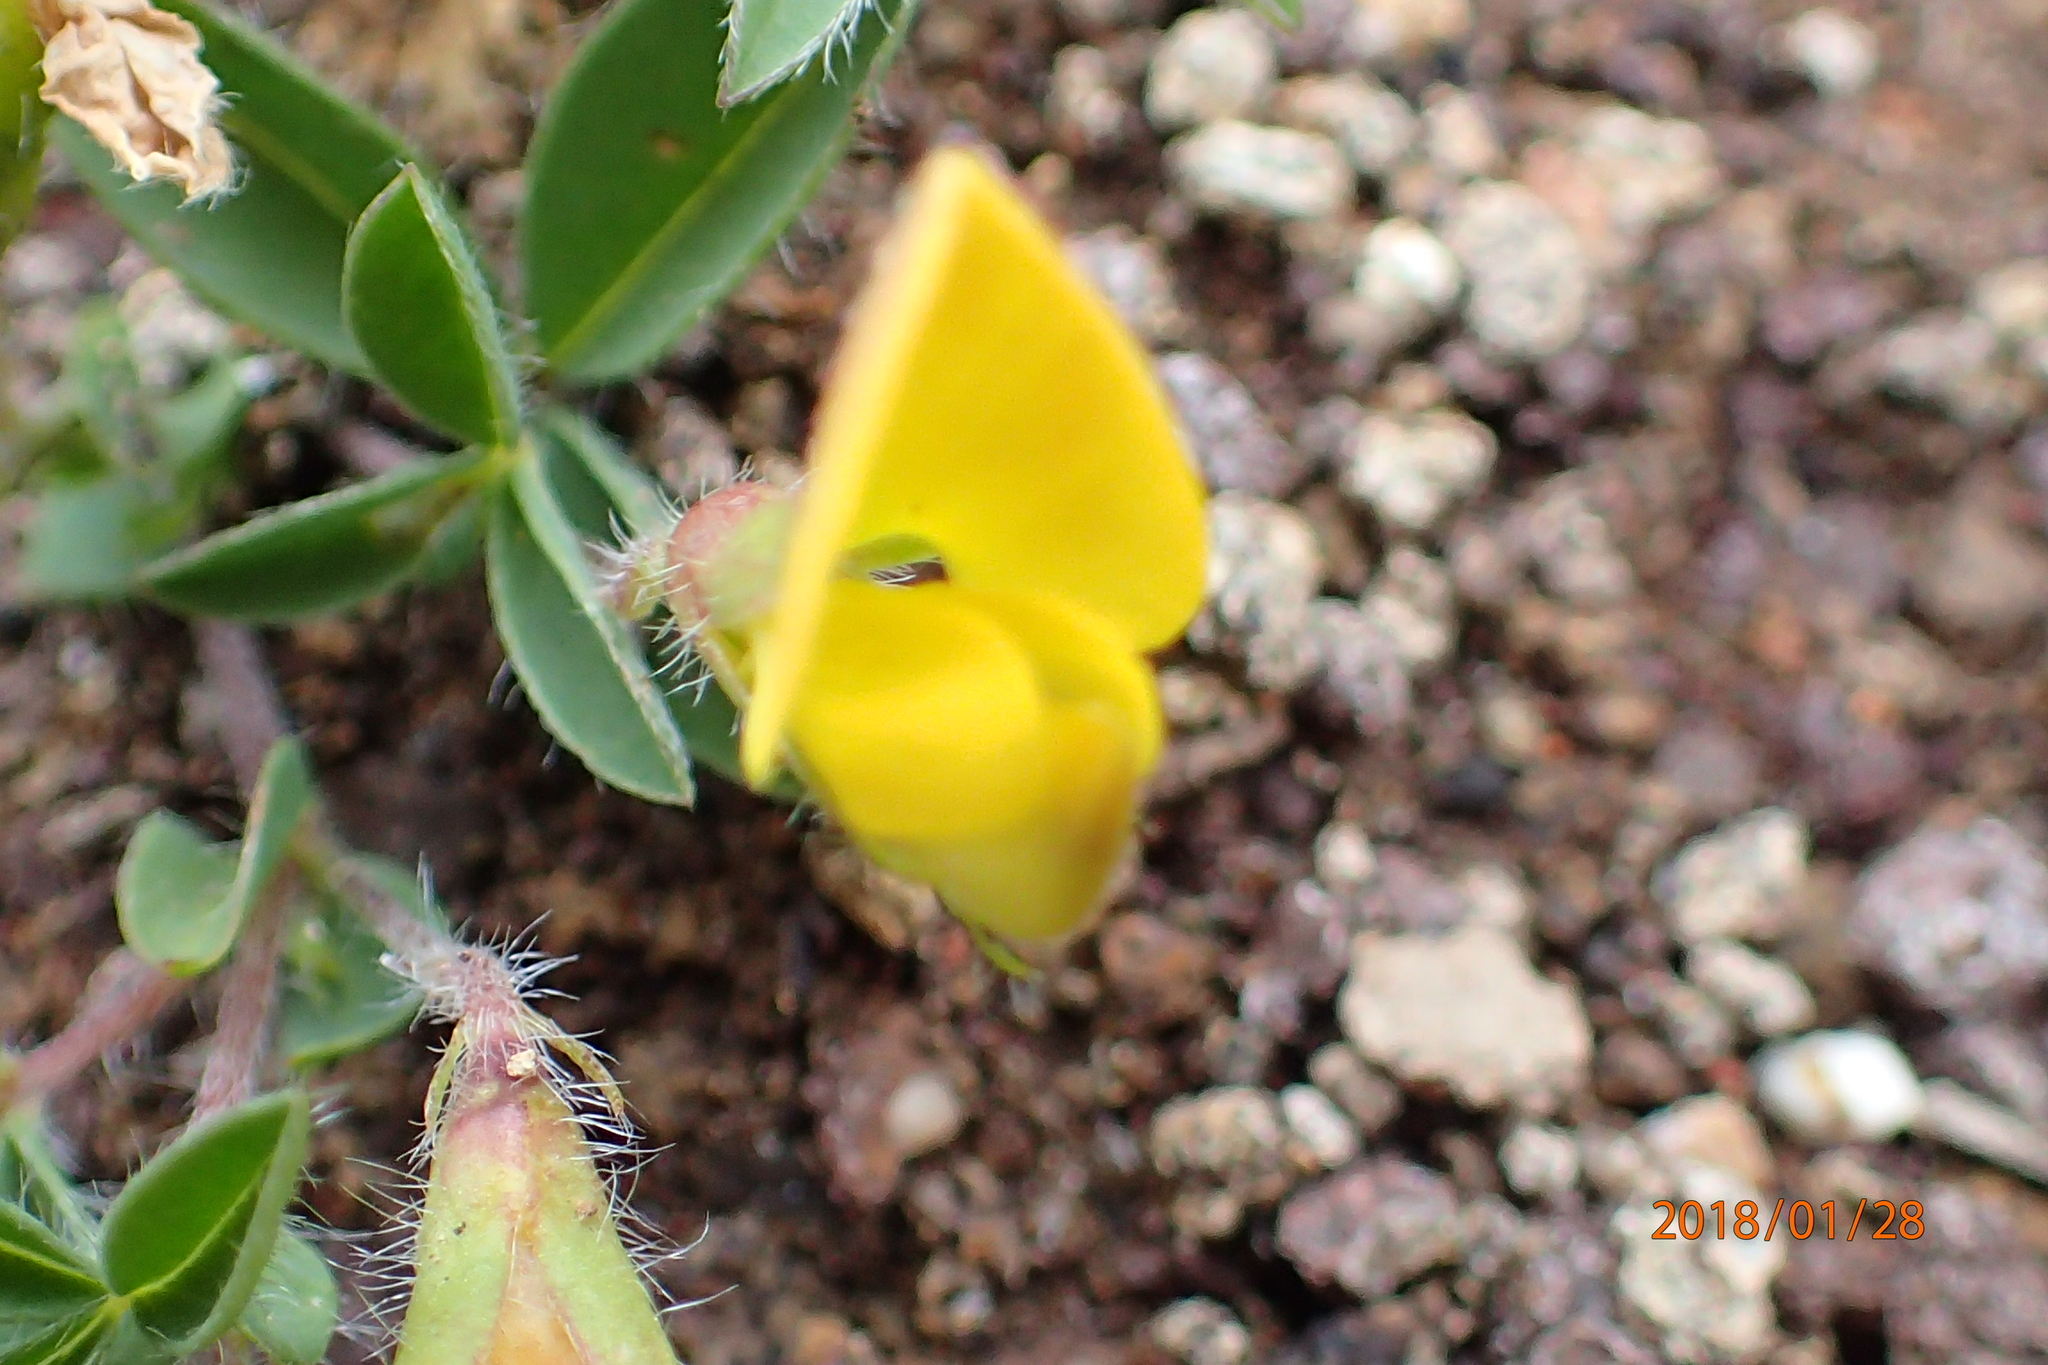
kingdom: Plantae
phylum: Tracheophyta
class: Magnoliopsida
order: Fabales
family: Fabaceae
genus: Leobordea
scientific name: Leobordea eriantha
